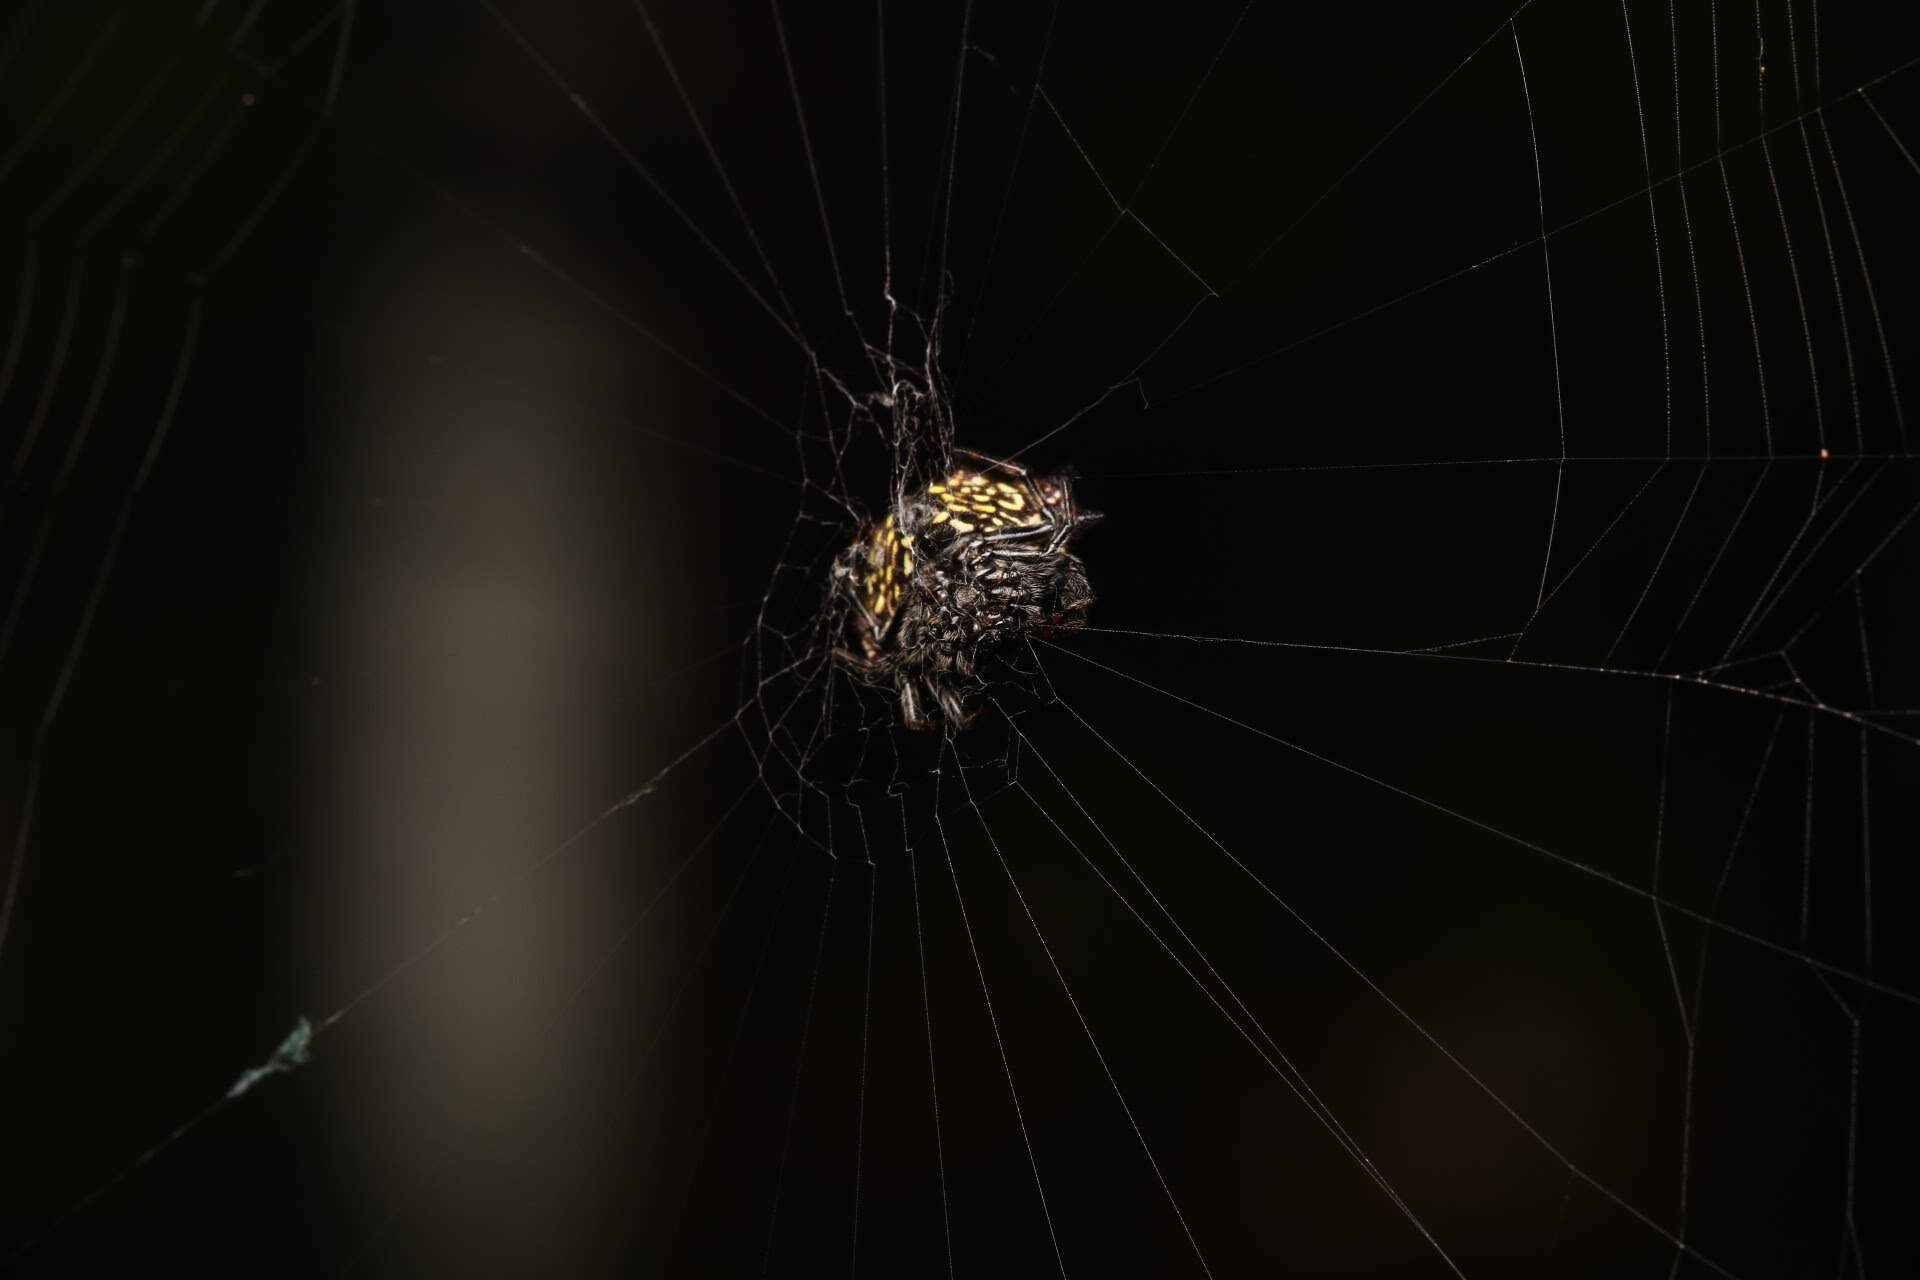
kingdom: Animalia
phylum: Arthropoda
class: Arachnida
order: Araneae
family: Araneidae
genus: Gasteracantha
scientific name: Gasteracantha cancriformis
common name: Orb weavers
